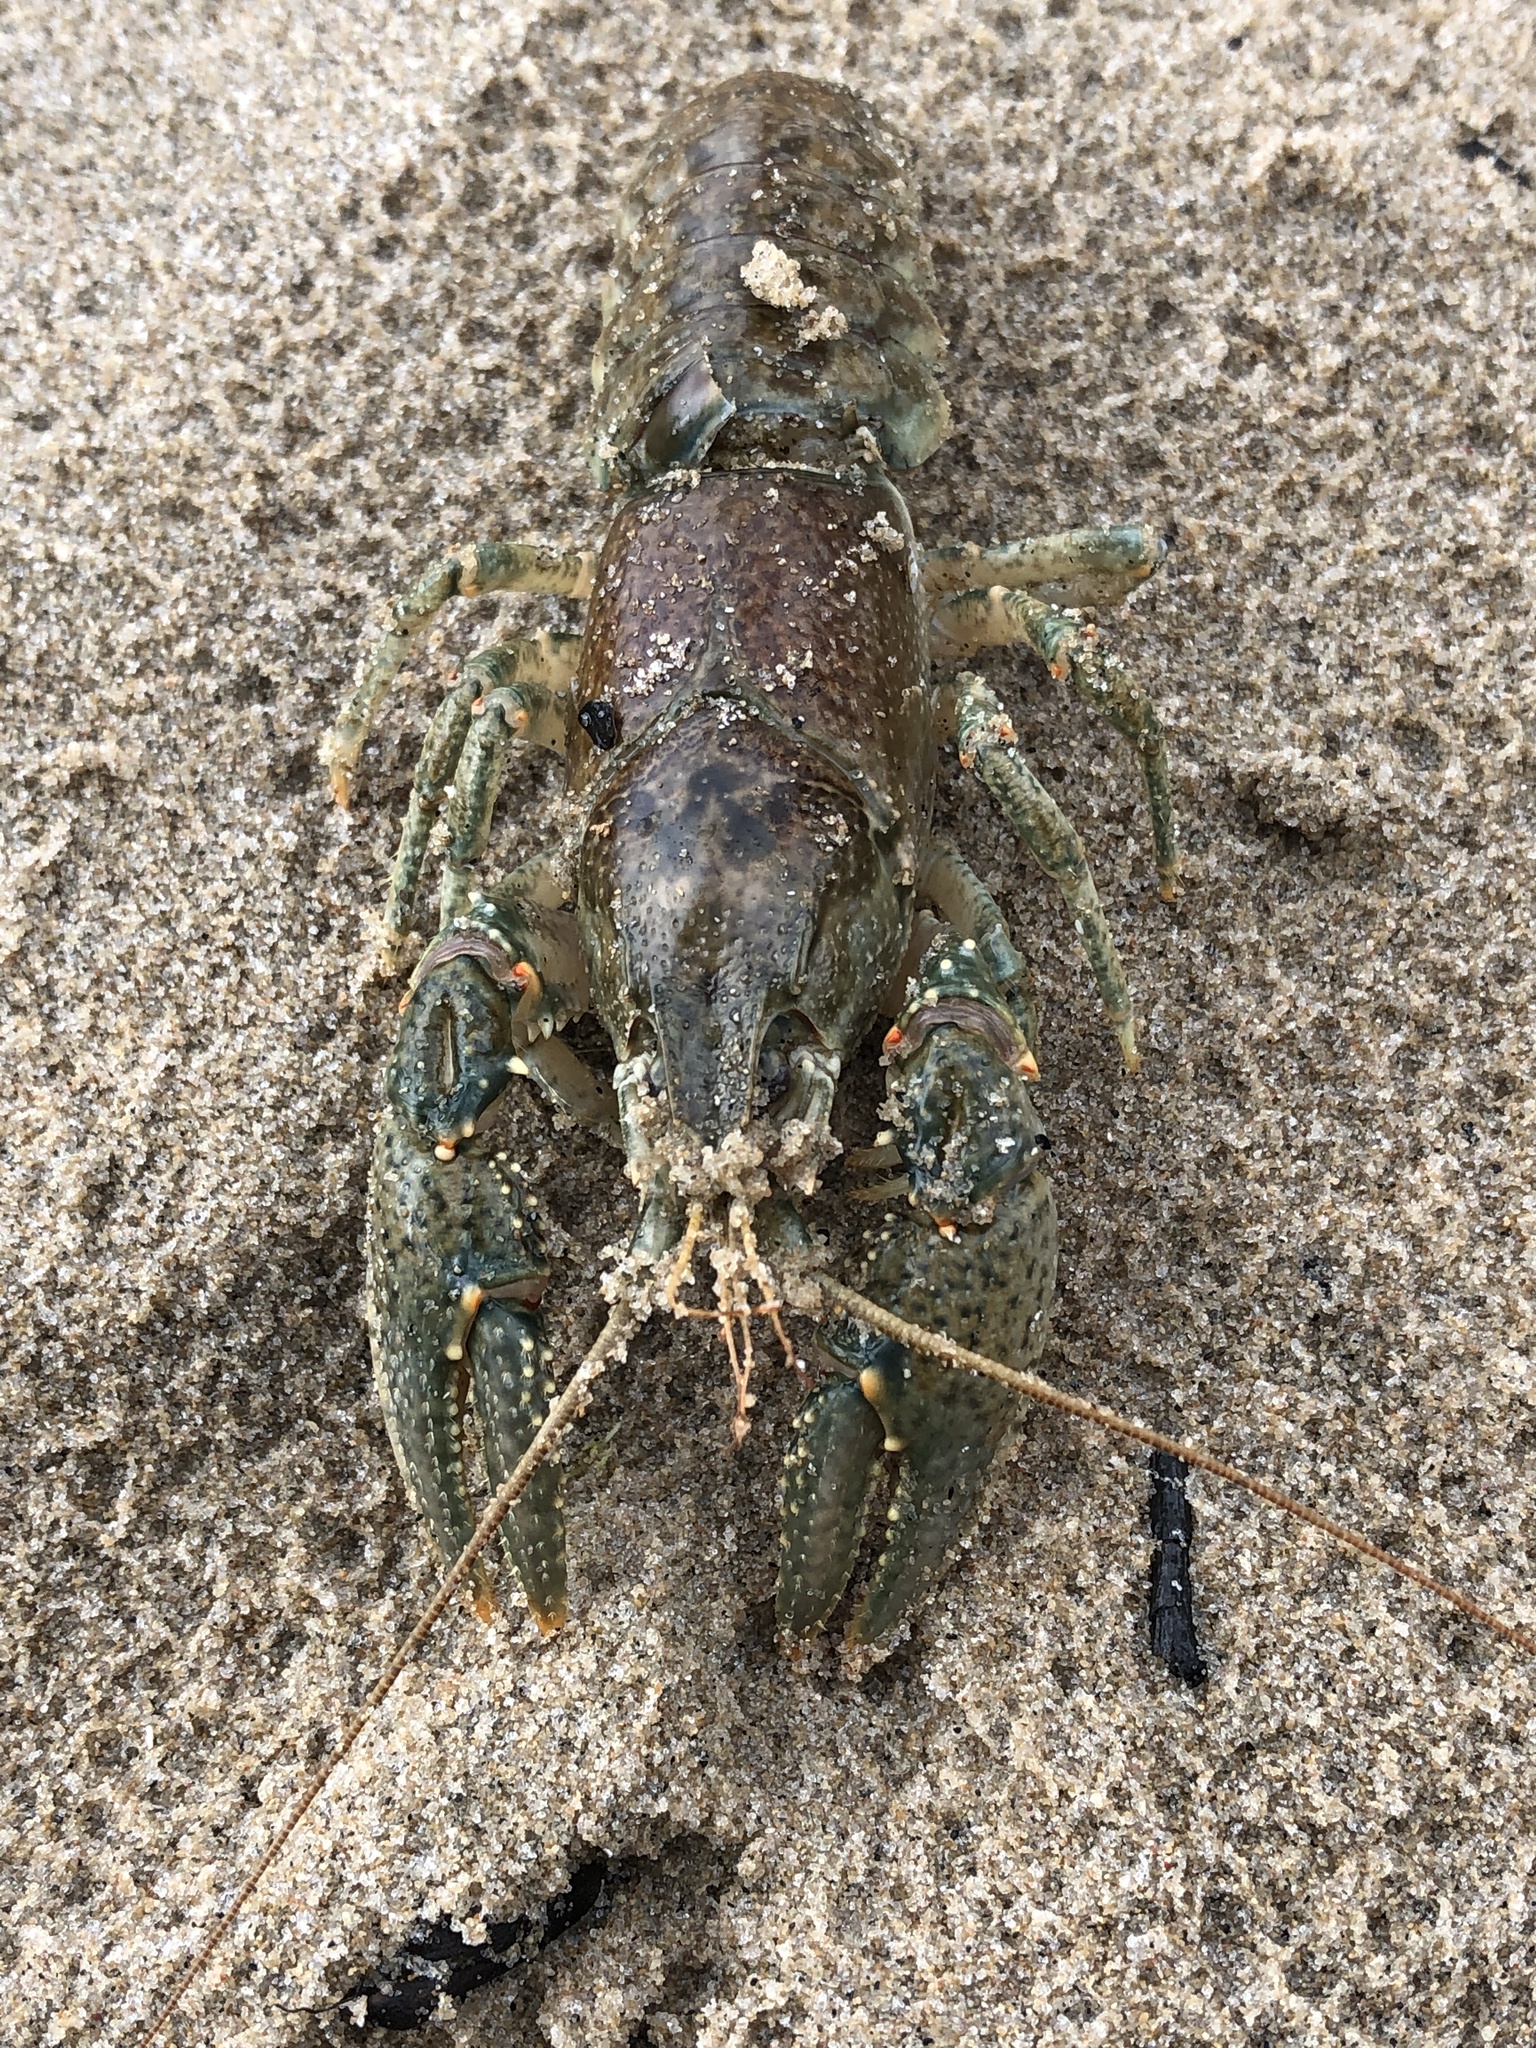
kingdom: Animalia
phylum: Arthropoda
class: Malacostraca
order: Decapoda
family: Cambaridae
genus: Faxonius
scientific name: Faxonius virilis
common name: Virile crayfish
